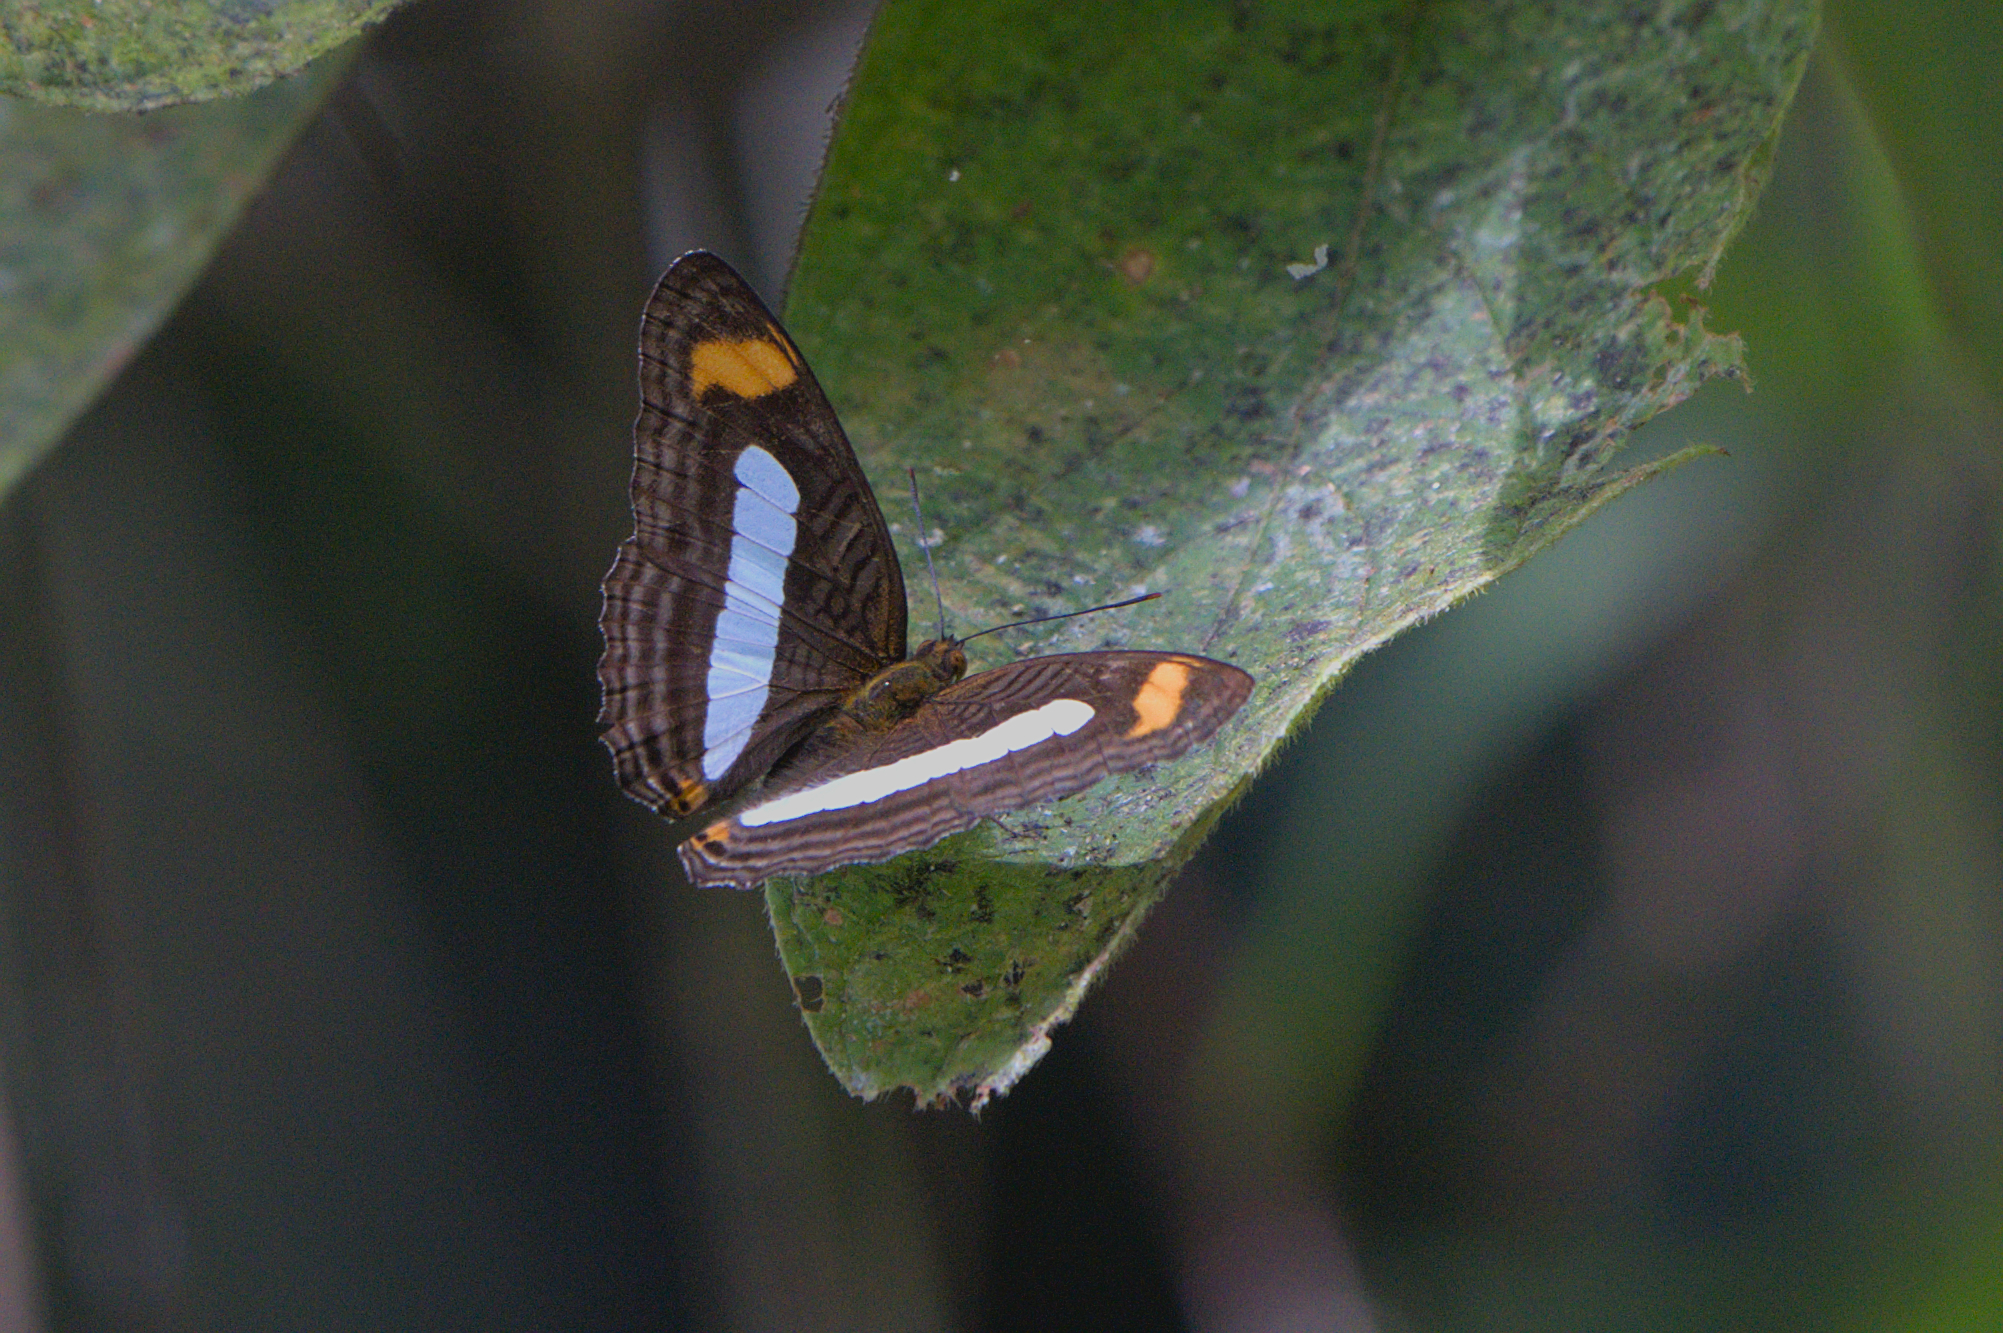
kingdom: Animalia
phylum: Arthropoda
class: Insecta
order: Lepidoptera
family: Nymphalidae
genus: Limenitis
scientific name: Limenitis Adelpha iphiclus
